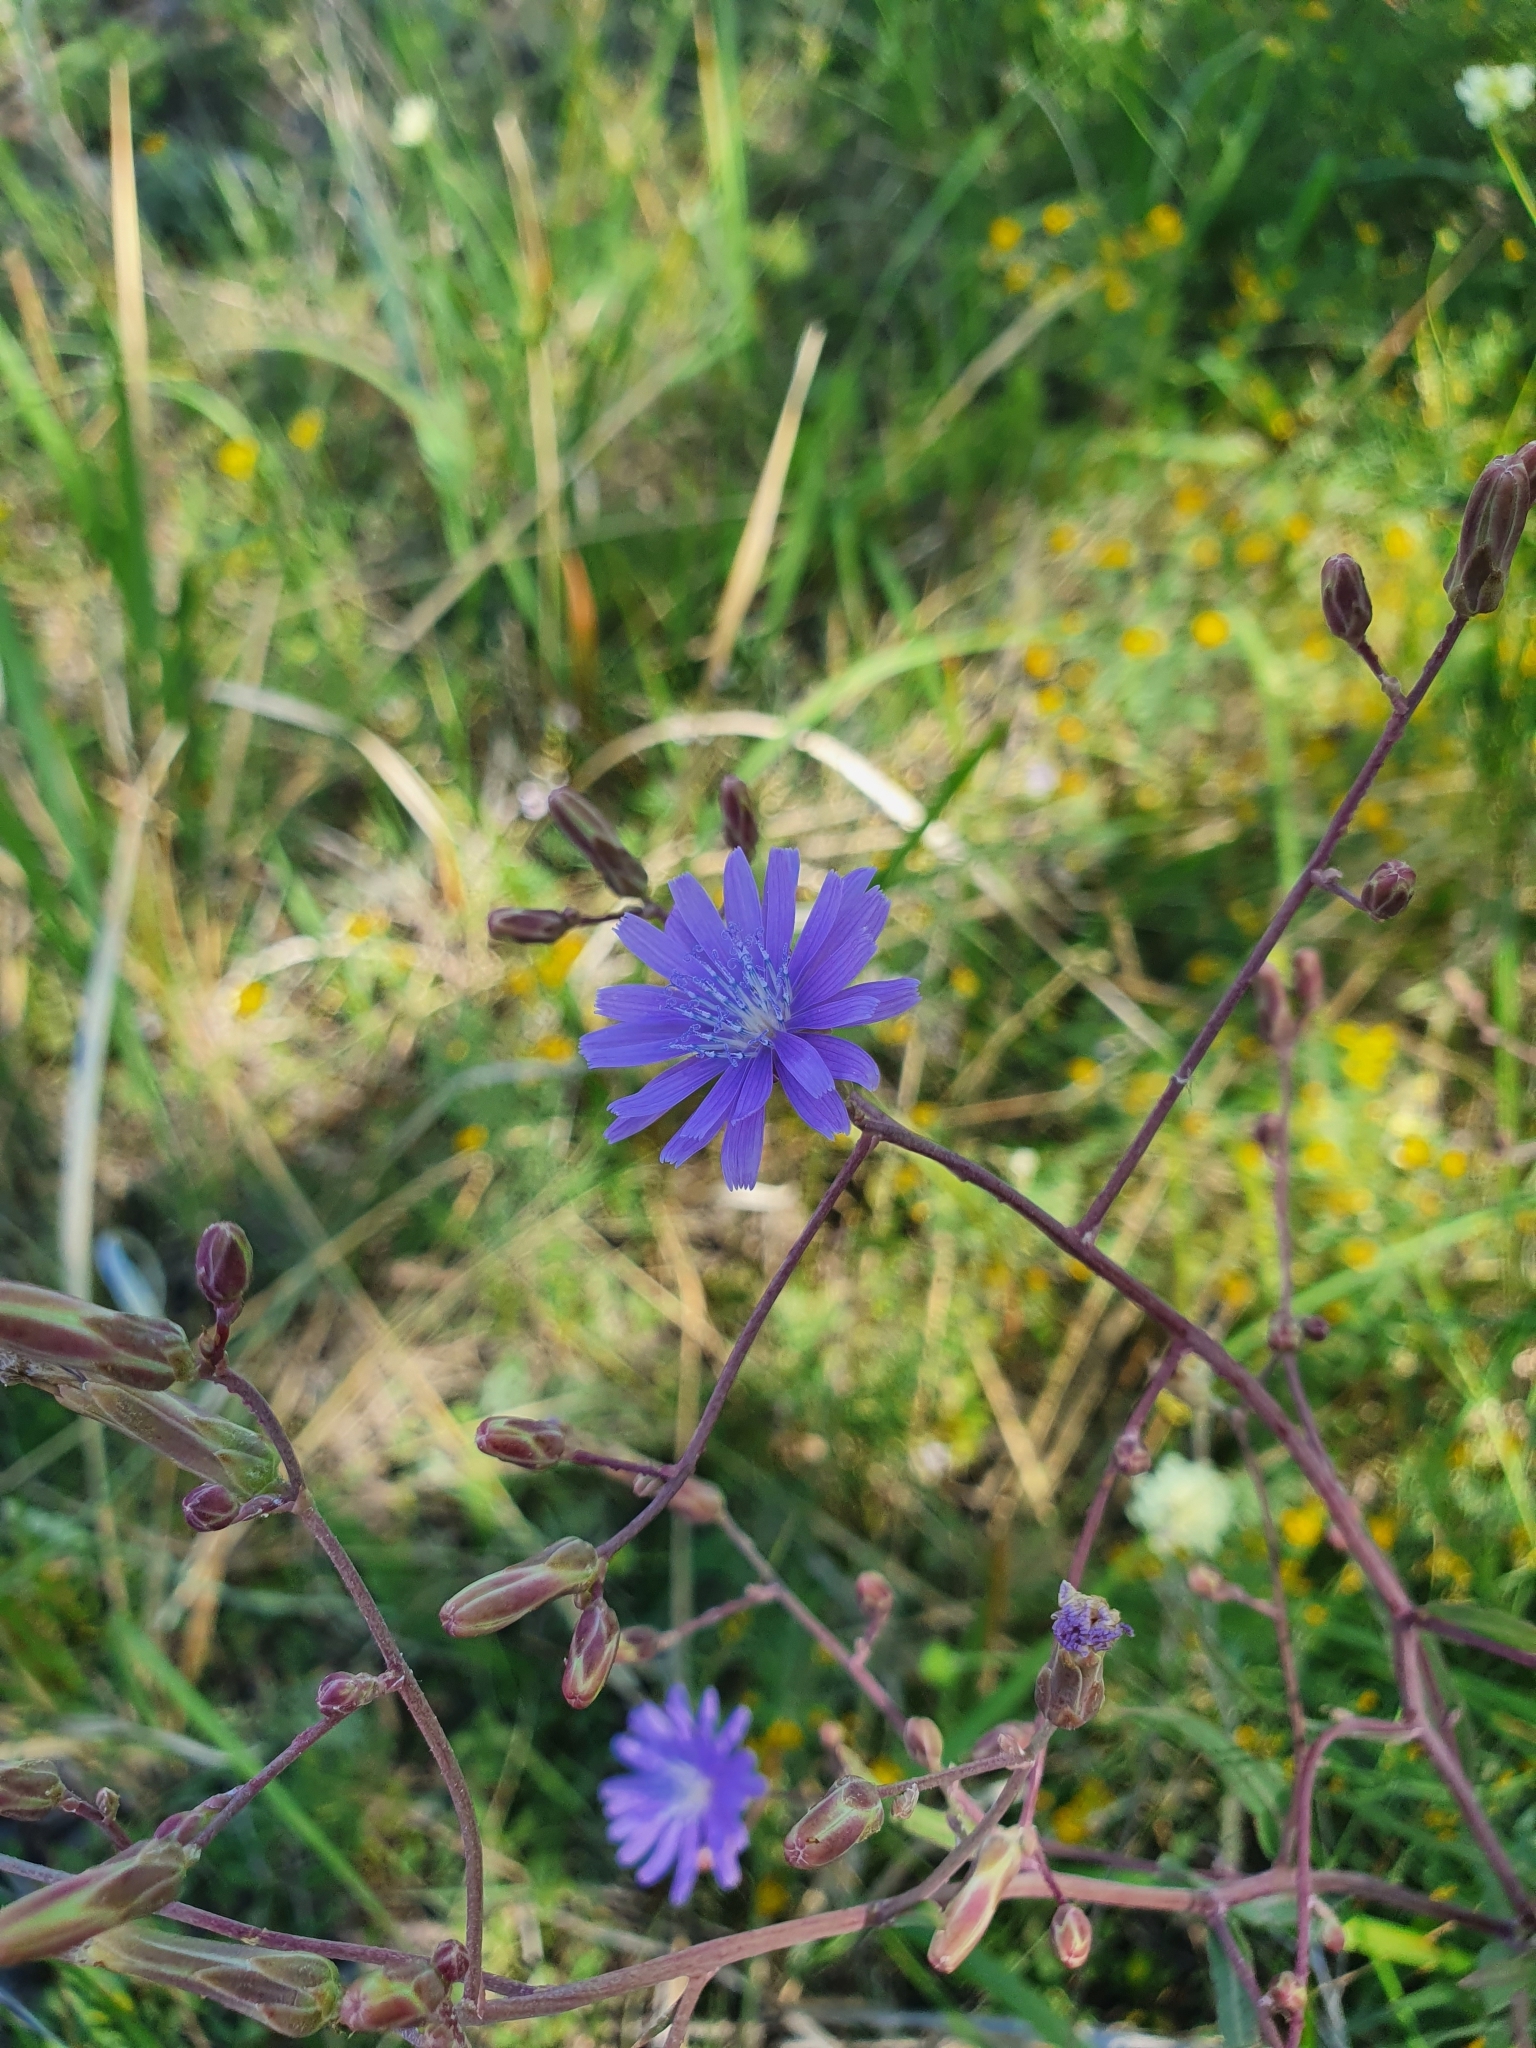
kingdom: Plantae
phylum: Tracheophyta
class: Magnoliopsida
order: Asterales
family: Asteraceae
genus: Lactuca
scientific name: Lactuca tatarica
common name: Blue lettuce
